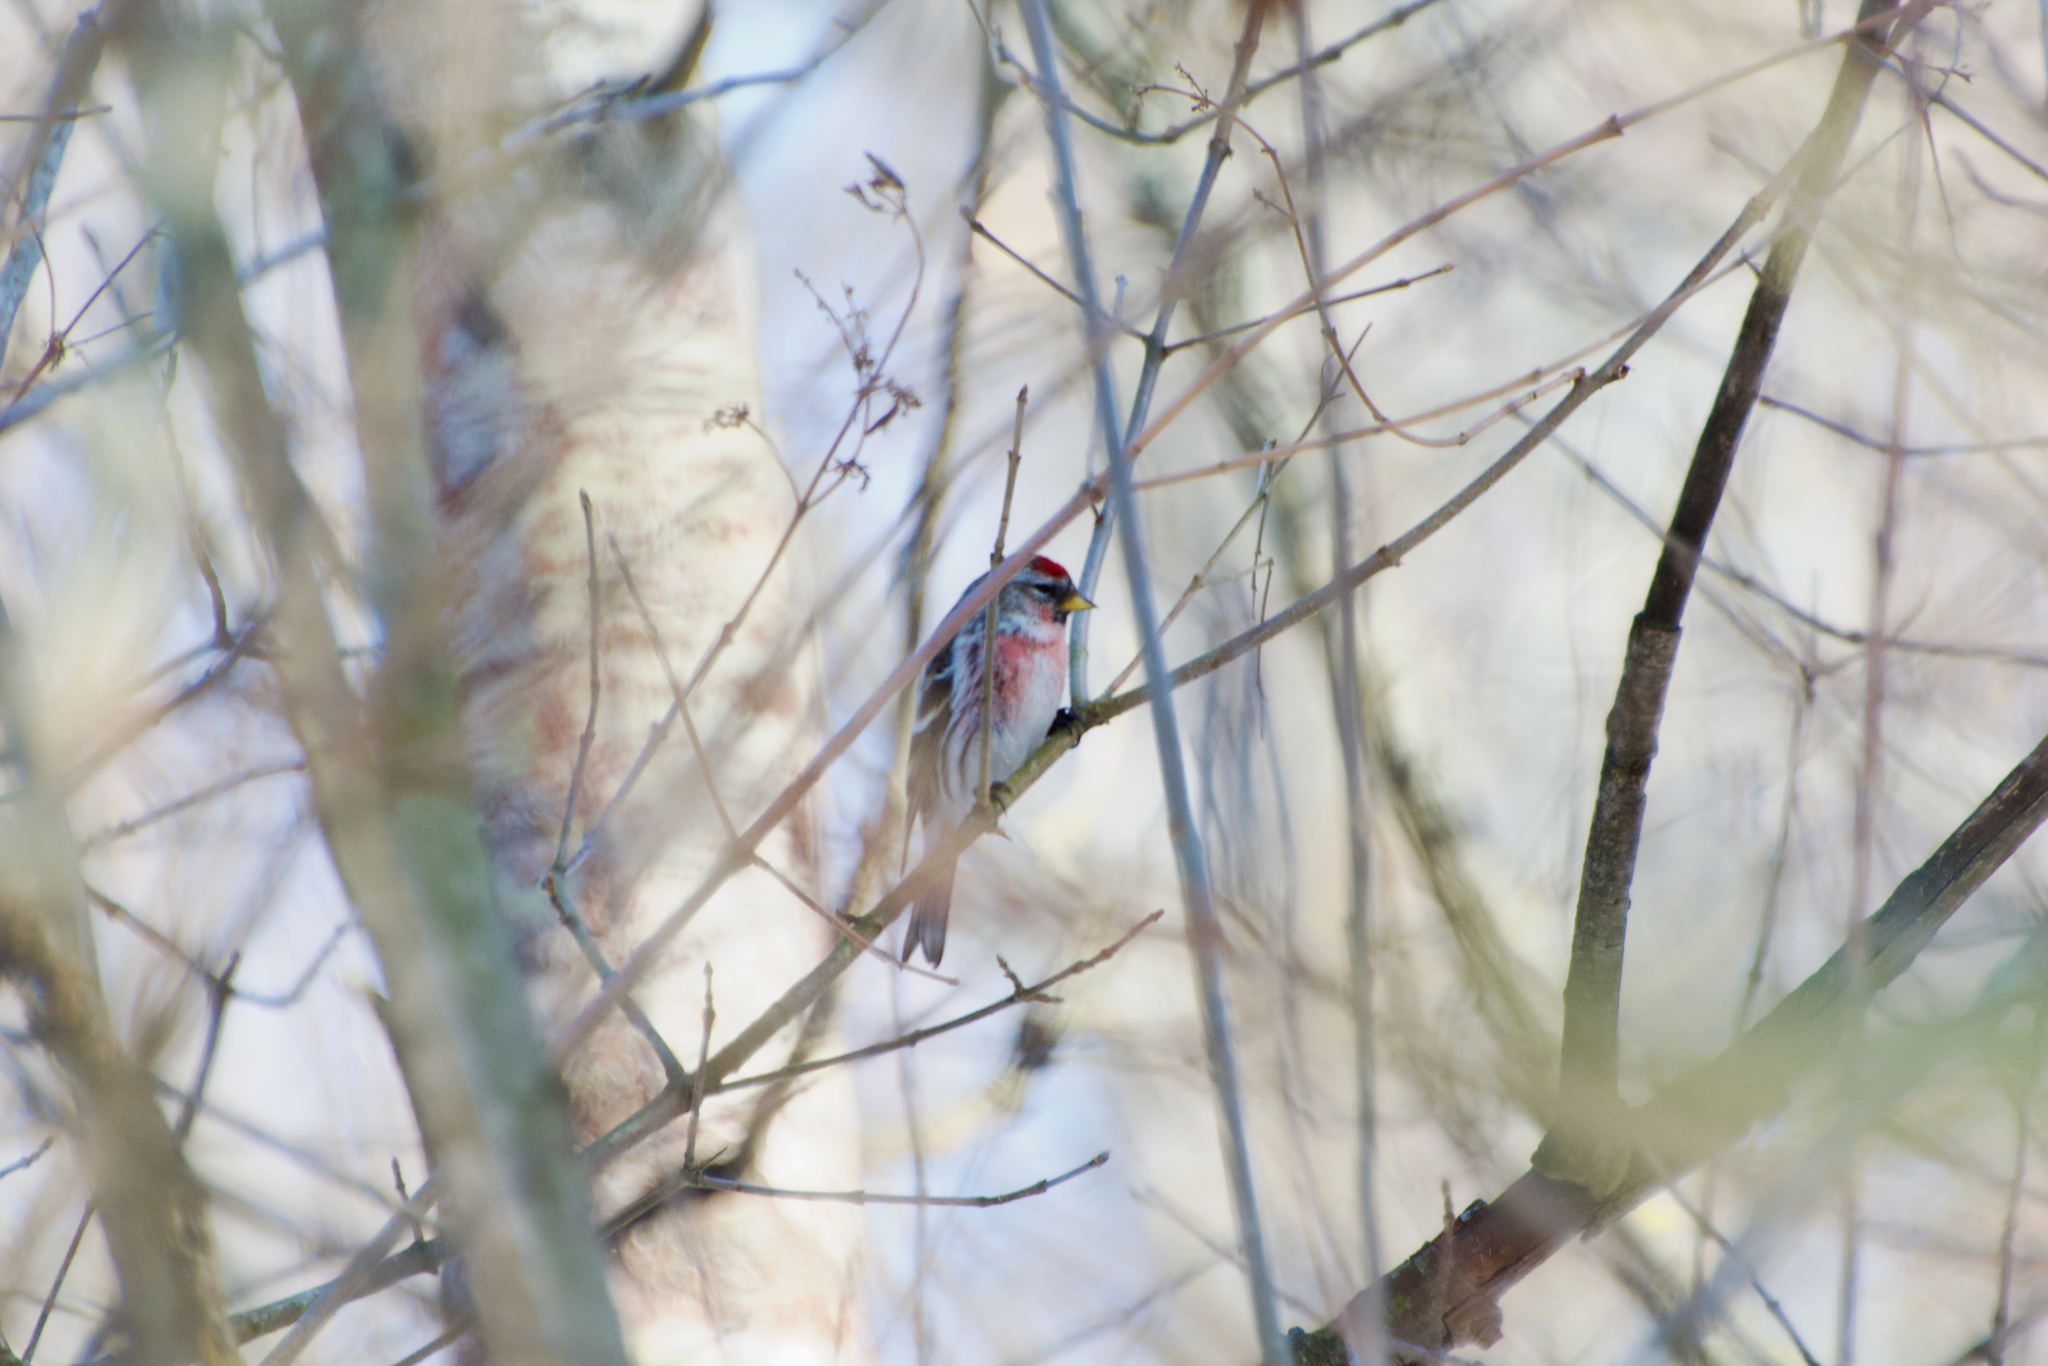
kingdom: Animalia
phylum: Chordata
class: Aves
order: Passeriformes
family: Fringillidae
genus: Acanthis
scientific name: Acanthis flammea
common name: Common redpoll
